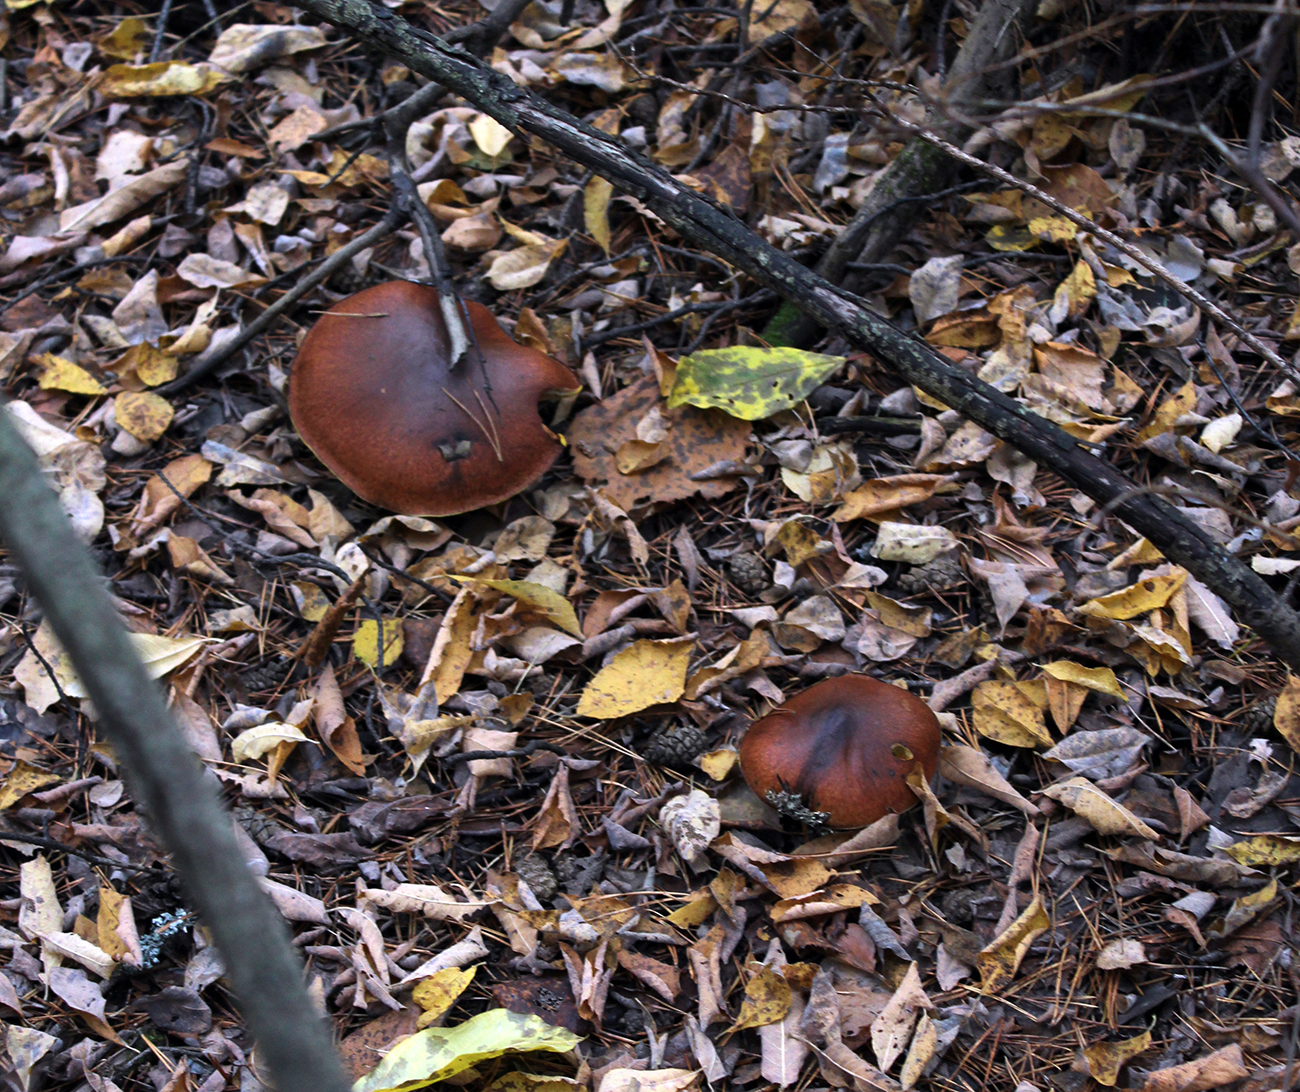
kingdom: Fungi
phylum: Basidiomycota
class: Agaricomycetes
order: Boletales
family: Suillaceae
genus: Suillus
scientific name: Suillus luteus
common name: Slippery jack
